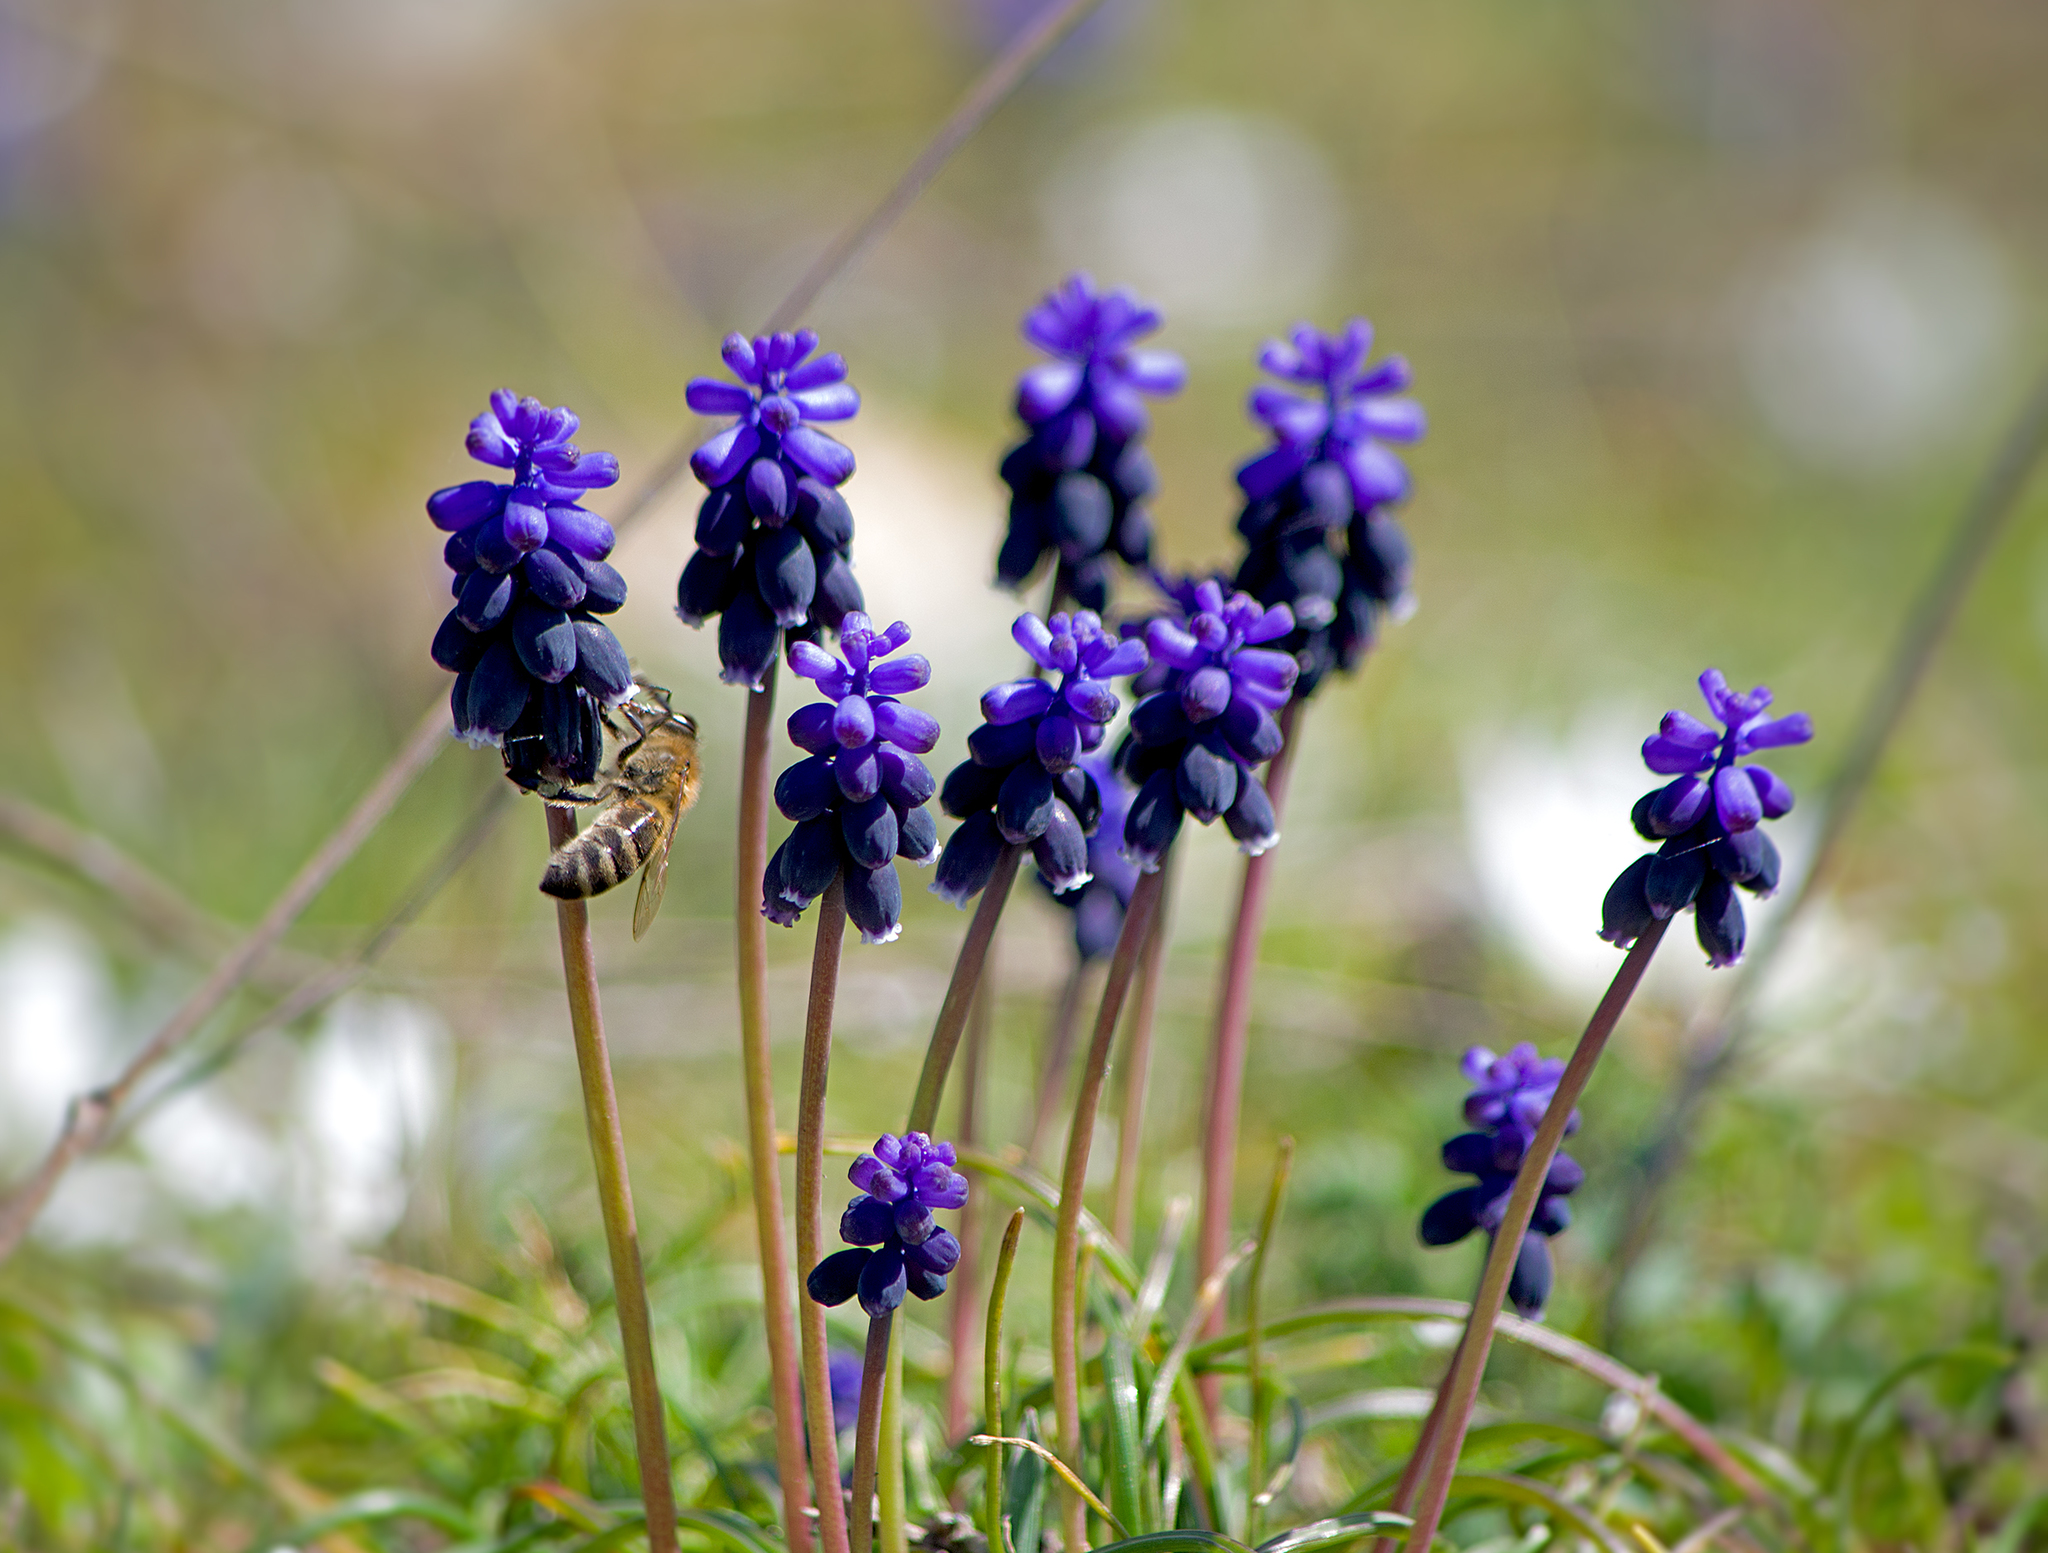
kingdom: Plantae
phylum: Tracheophyta
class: Liliopsida
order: Asparagales
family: Asparagaceae
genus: Muscari
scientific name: Muscari neglectum
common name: Grape-hyacinth
